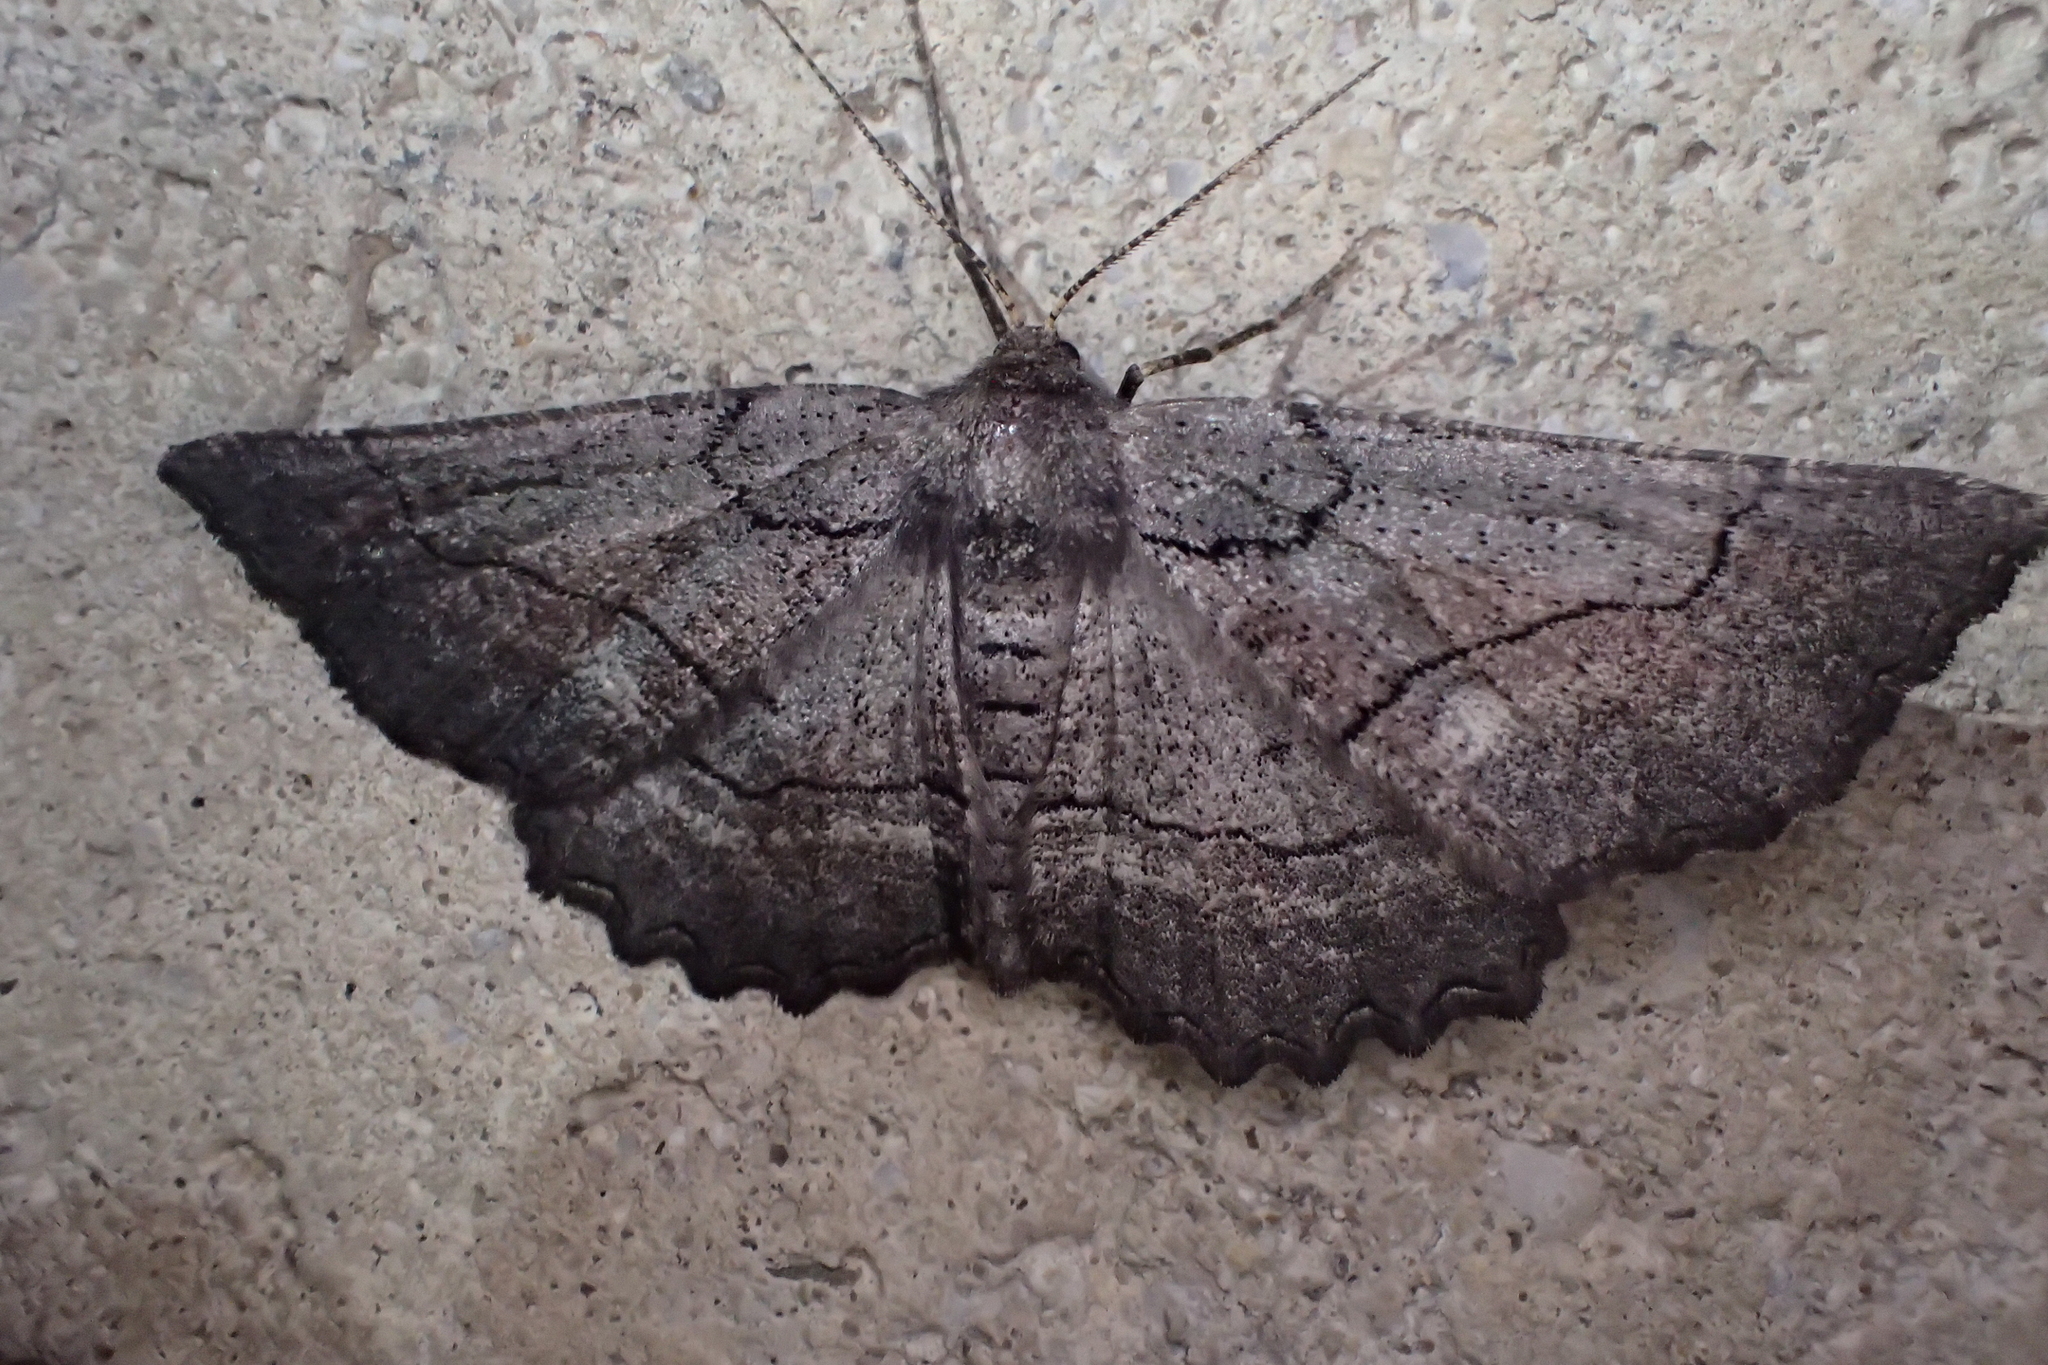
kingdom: Animalia
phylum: Arthropoda
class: Insecta
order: Lepidoptera
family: Geometridae
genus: Nychiodes
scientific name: Nychiodes obscuraria
